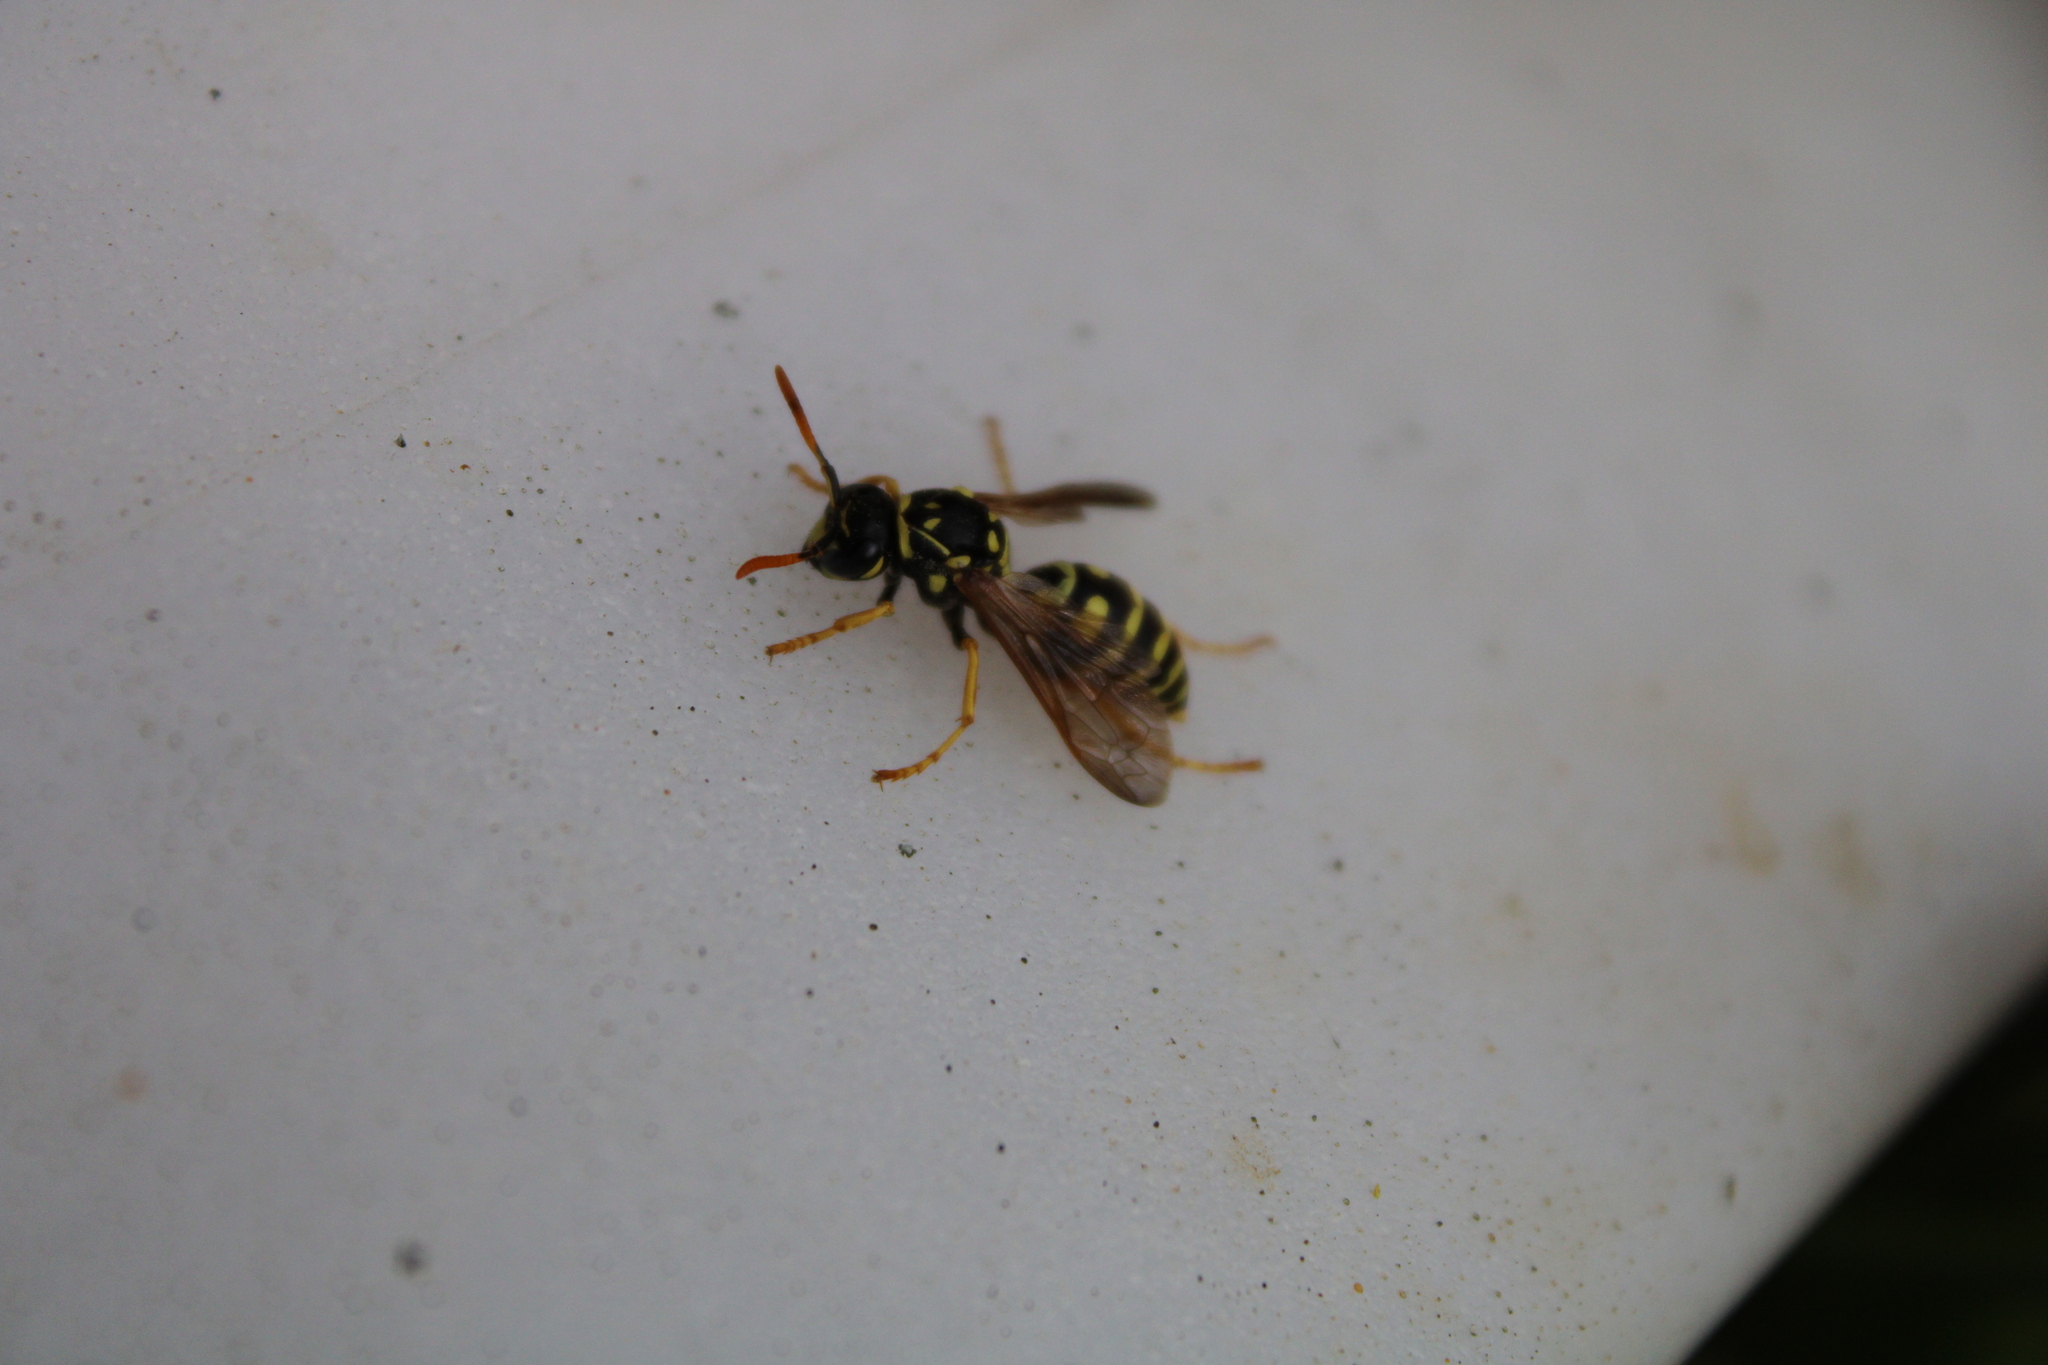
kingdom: Animalia
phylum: Arthropoda
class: Insecta
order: Hymenoptera
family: Eumenidae
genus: Polistes
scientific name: Polistes dominula
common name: Paper wasp
